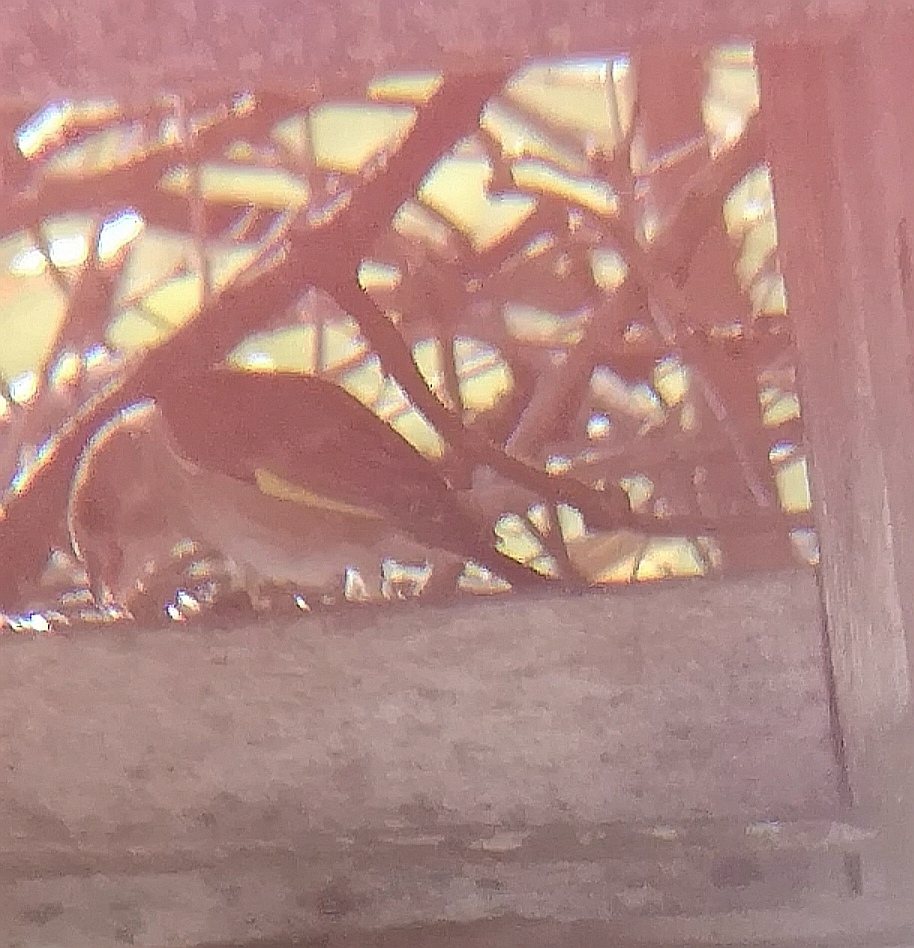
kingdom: Plantae
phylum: Tracheophyta
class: Liliopsida
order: Poales
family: Poaceae
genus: Chloris
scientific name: Chloris chloris
